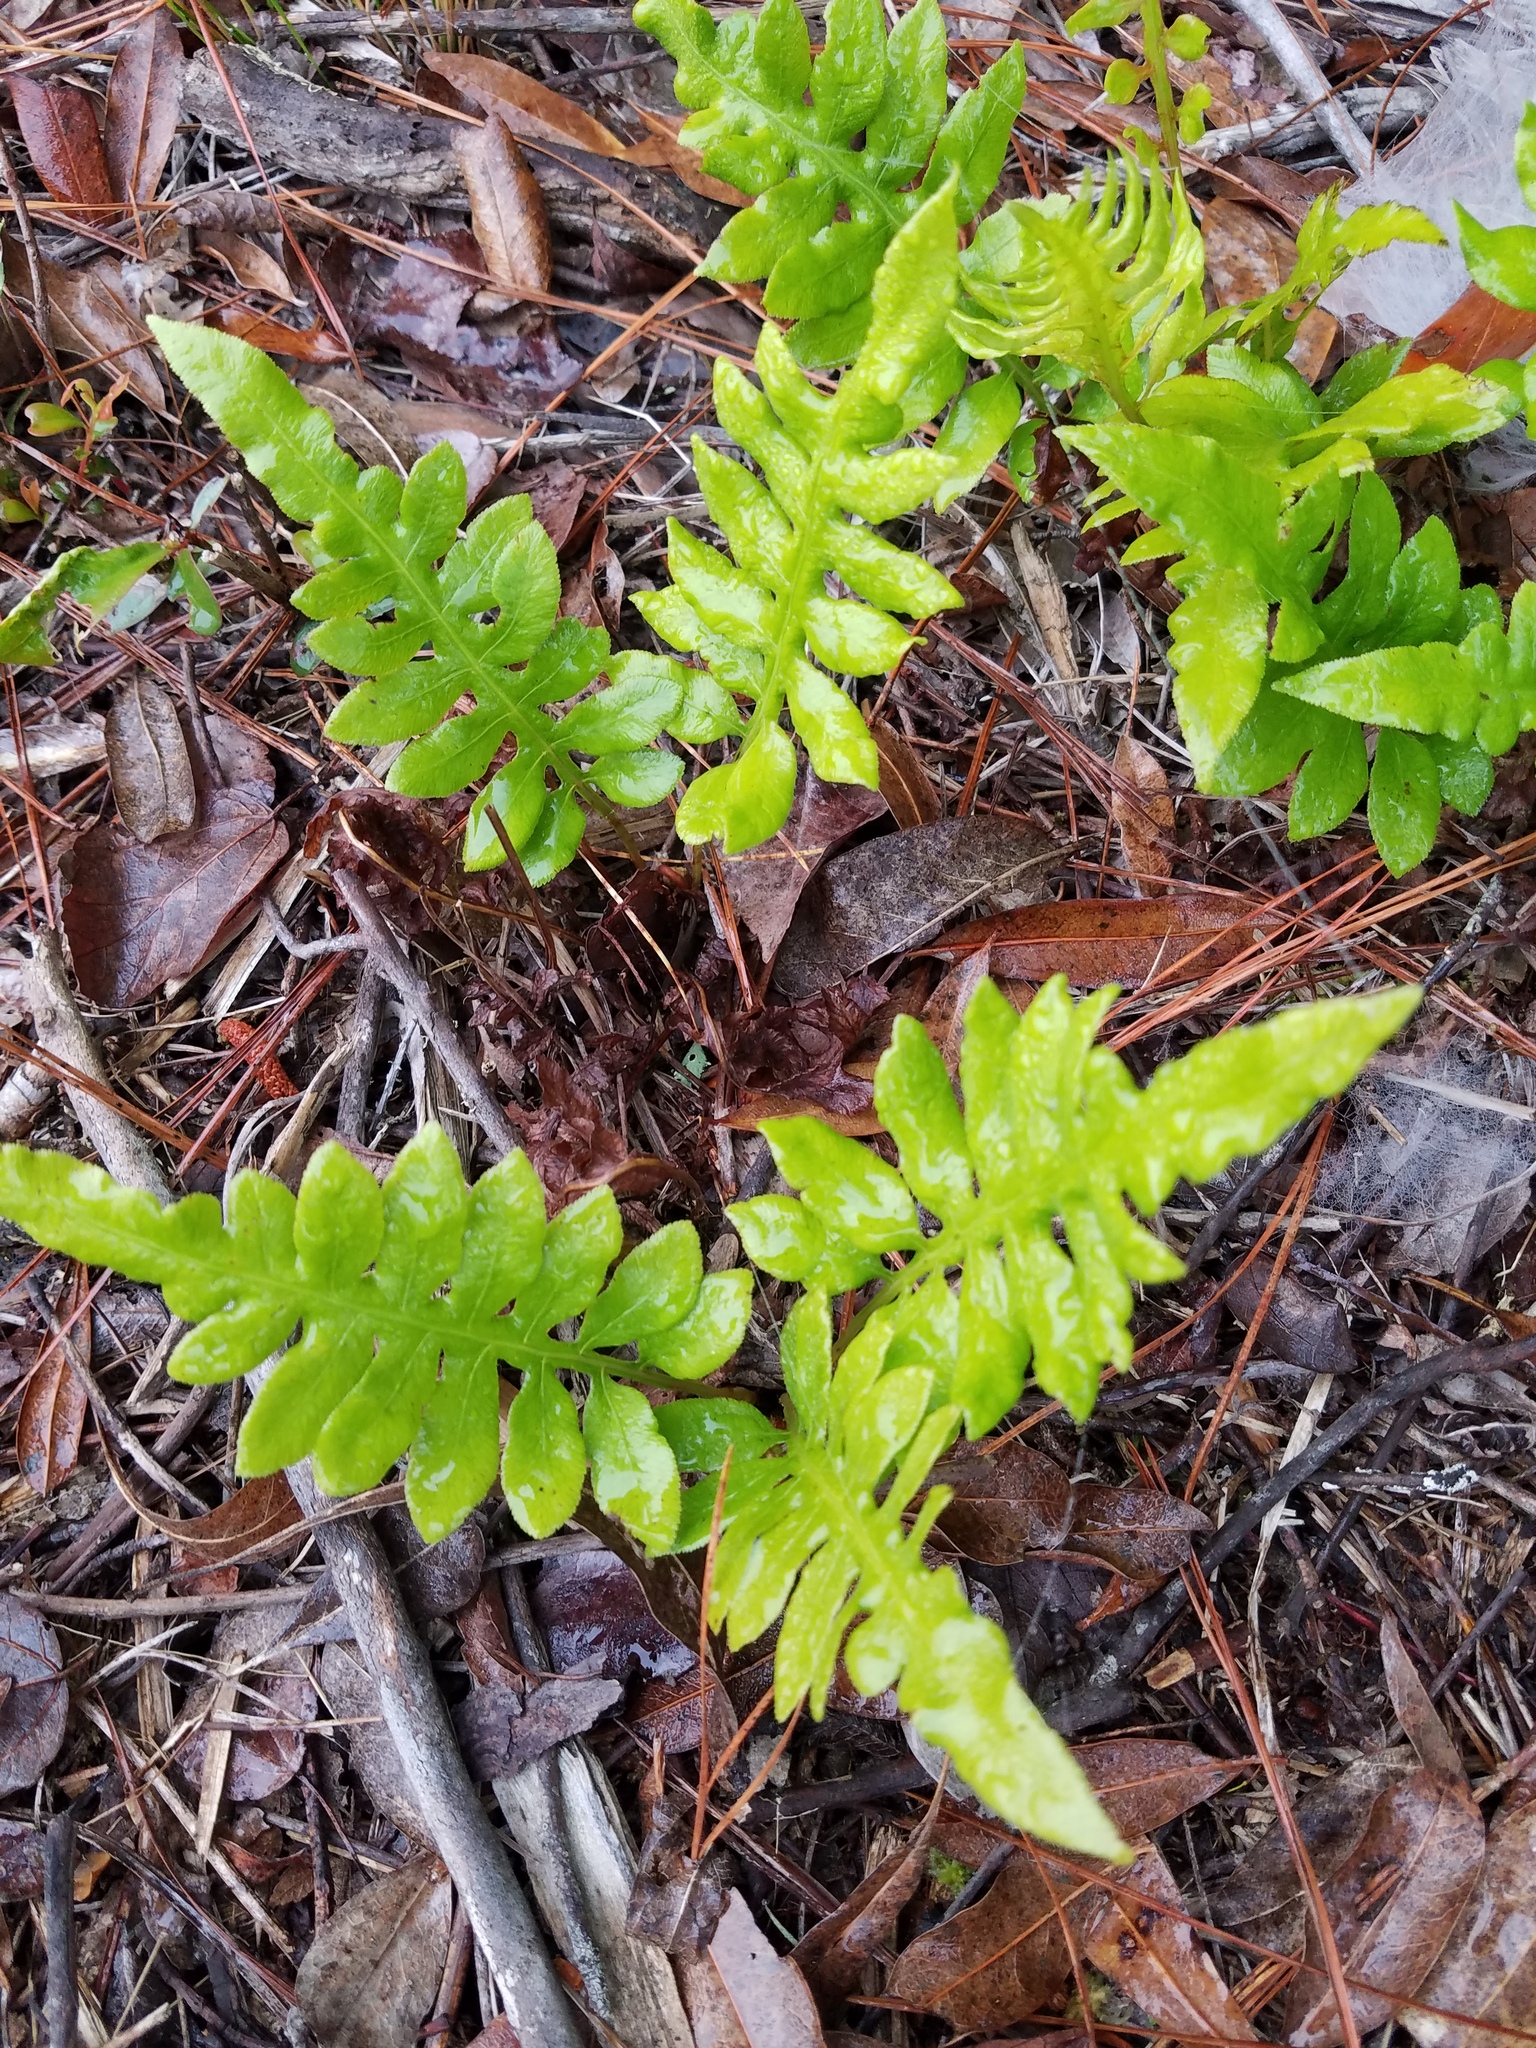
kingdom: Plantae
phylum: Tracheophyta
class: Polypodiopsida
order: Polypodiales
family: Blechnaceae
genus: Lorinseria
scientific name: Lorinseria areolata
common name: Dwarf chain fern
